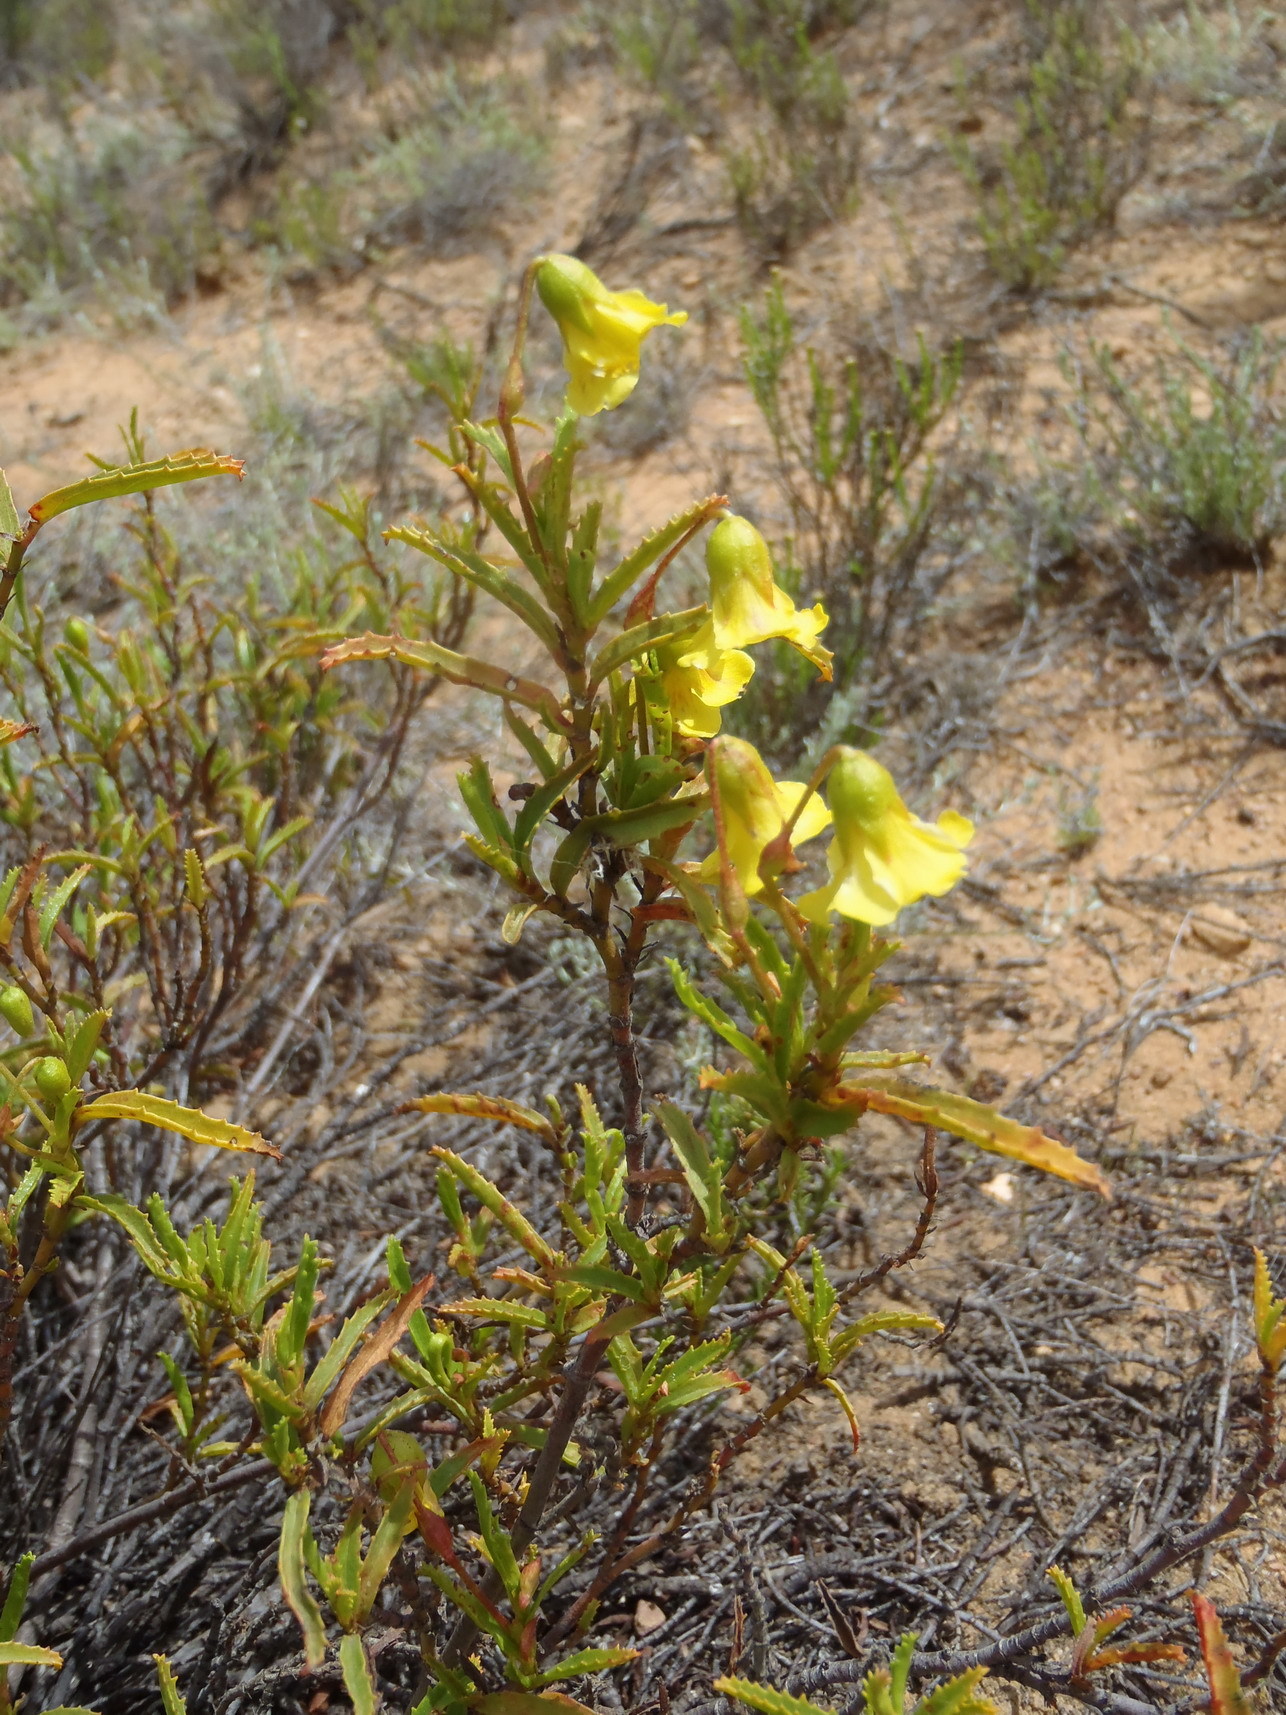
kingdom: Plantae
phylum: Tracheophyta
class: Magnoliopsida
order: Malvales
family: Malvaceae
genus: Hermannia
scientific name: Hermannia saccifera
